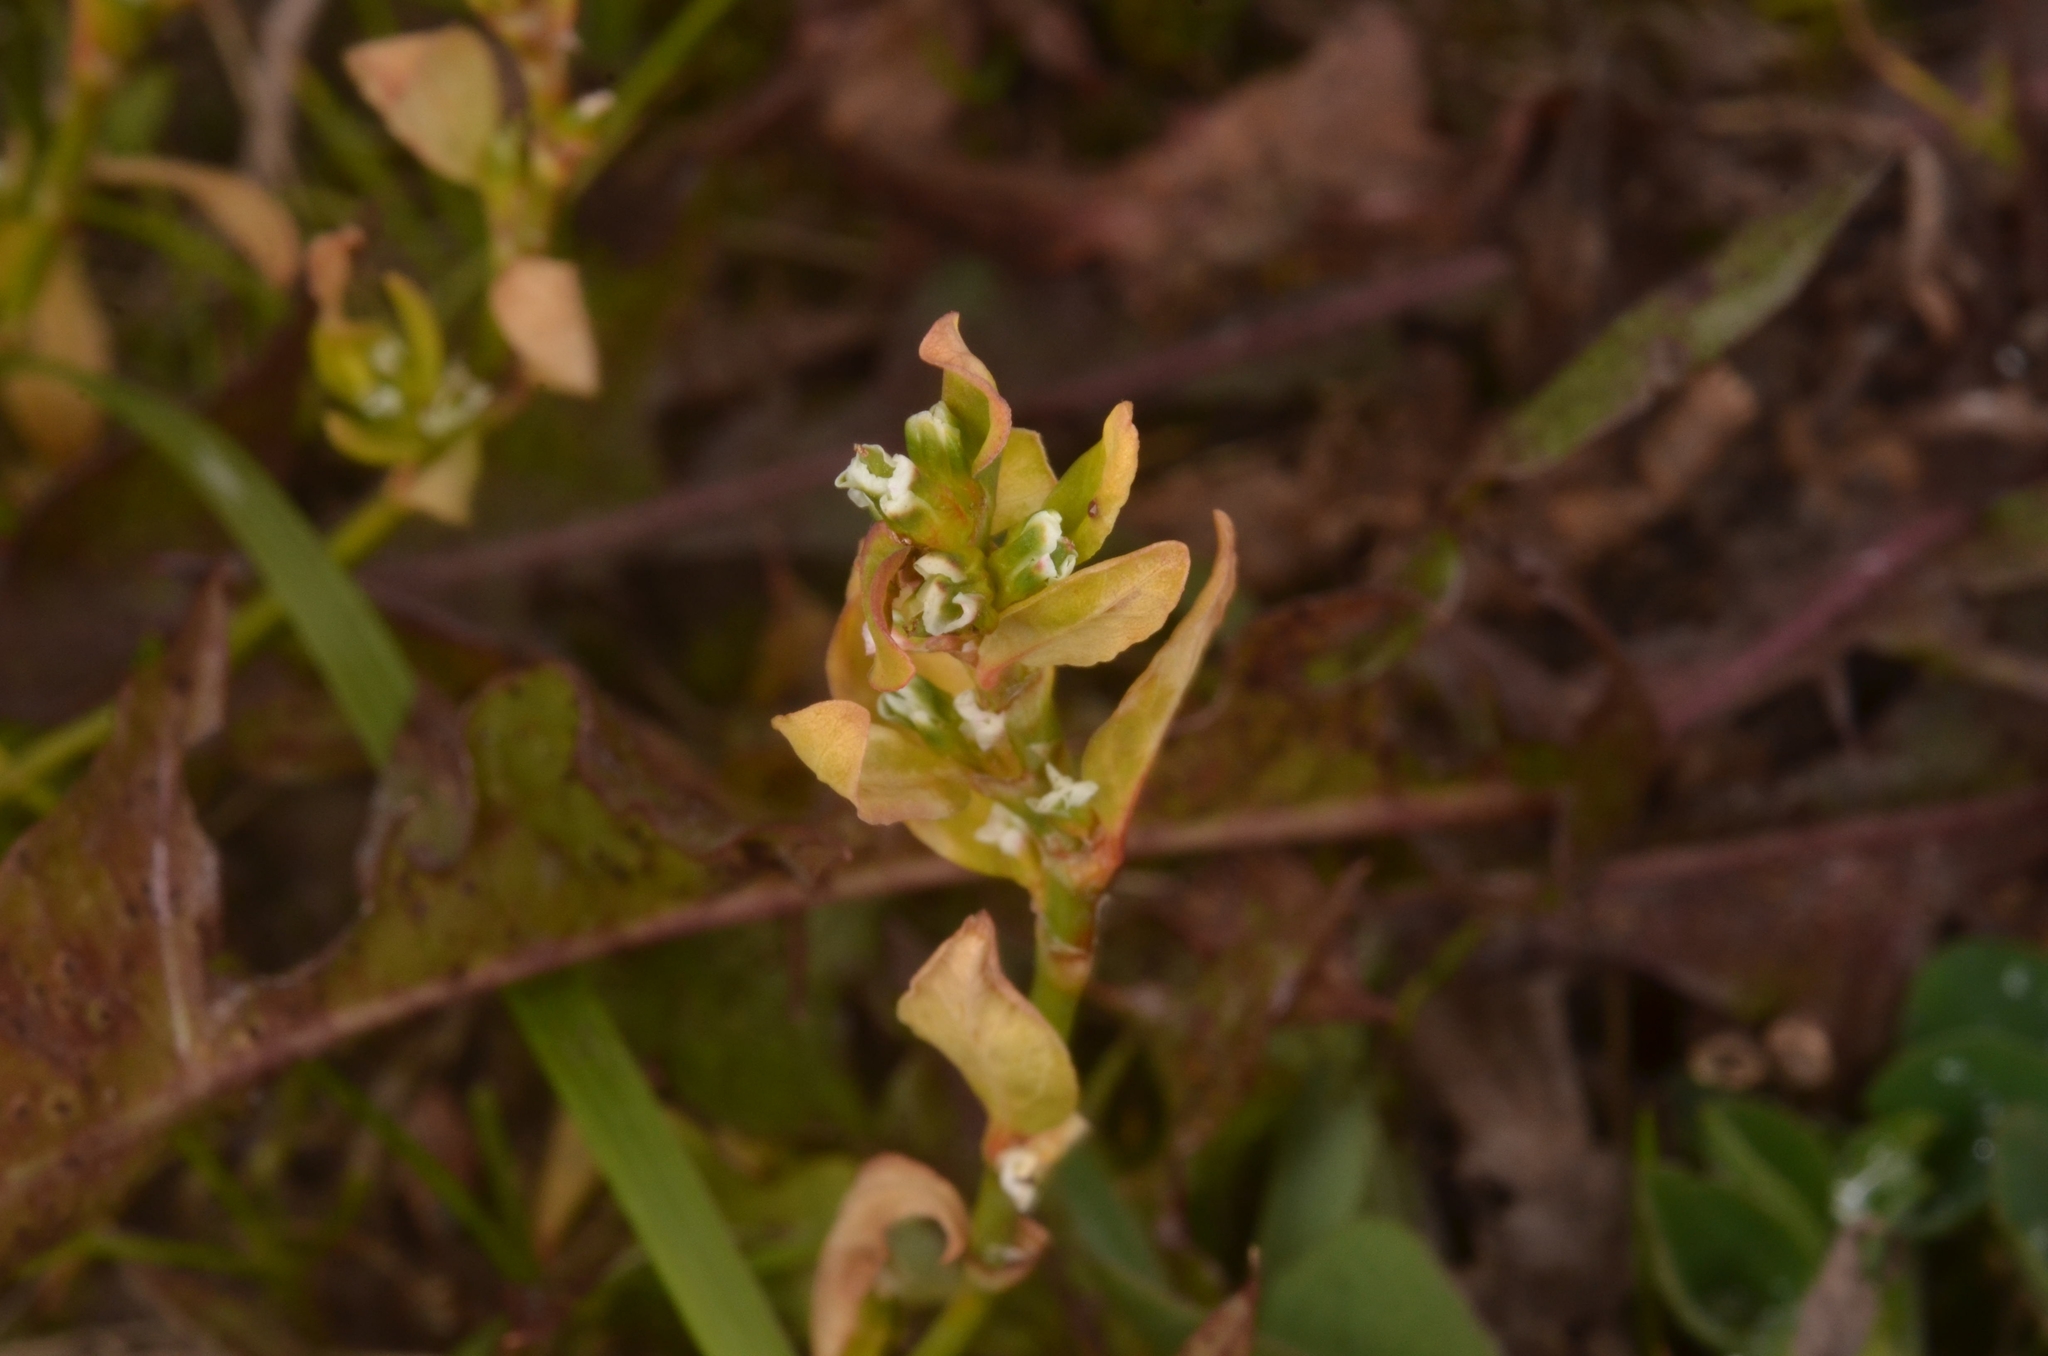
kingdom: Plantae
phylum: Tracheophyta
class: Magnoliopsida
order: Caryophyllales
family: Polygonaceae
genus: Polygonum
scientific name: Polygonum
